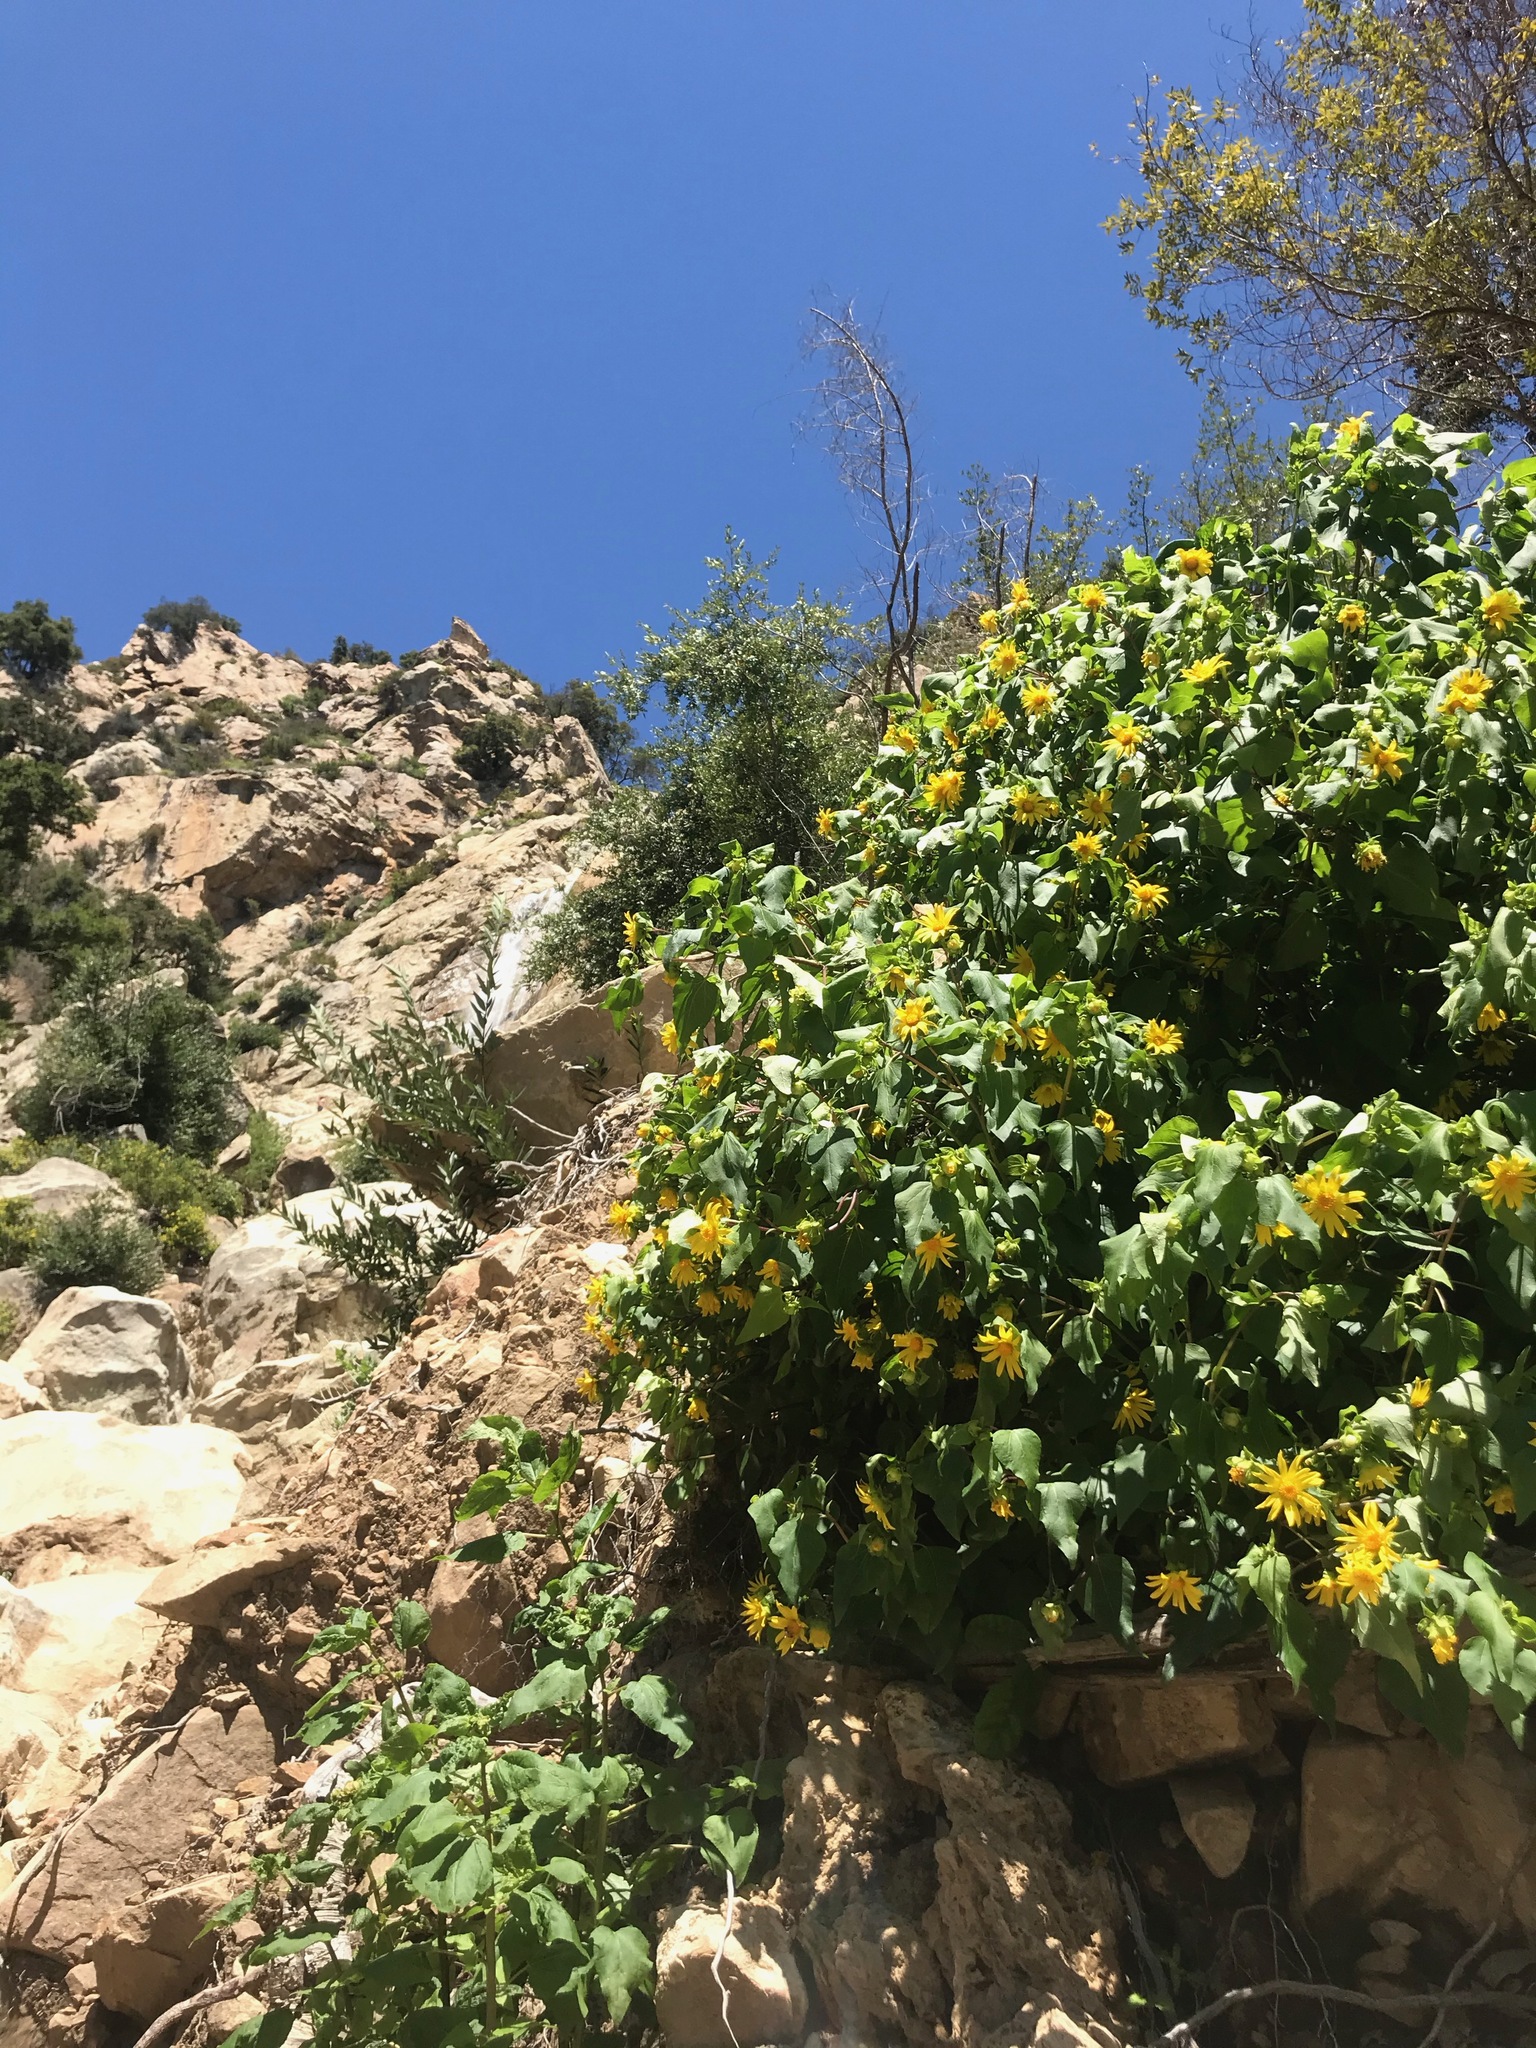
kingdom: Plantae
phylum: Tracheophyta
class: Magnoliopsida
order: Asterales
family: Asteraceae
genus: Venegasia
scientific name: Venegasia carpesioides
